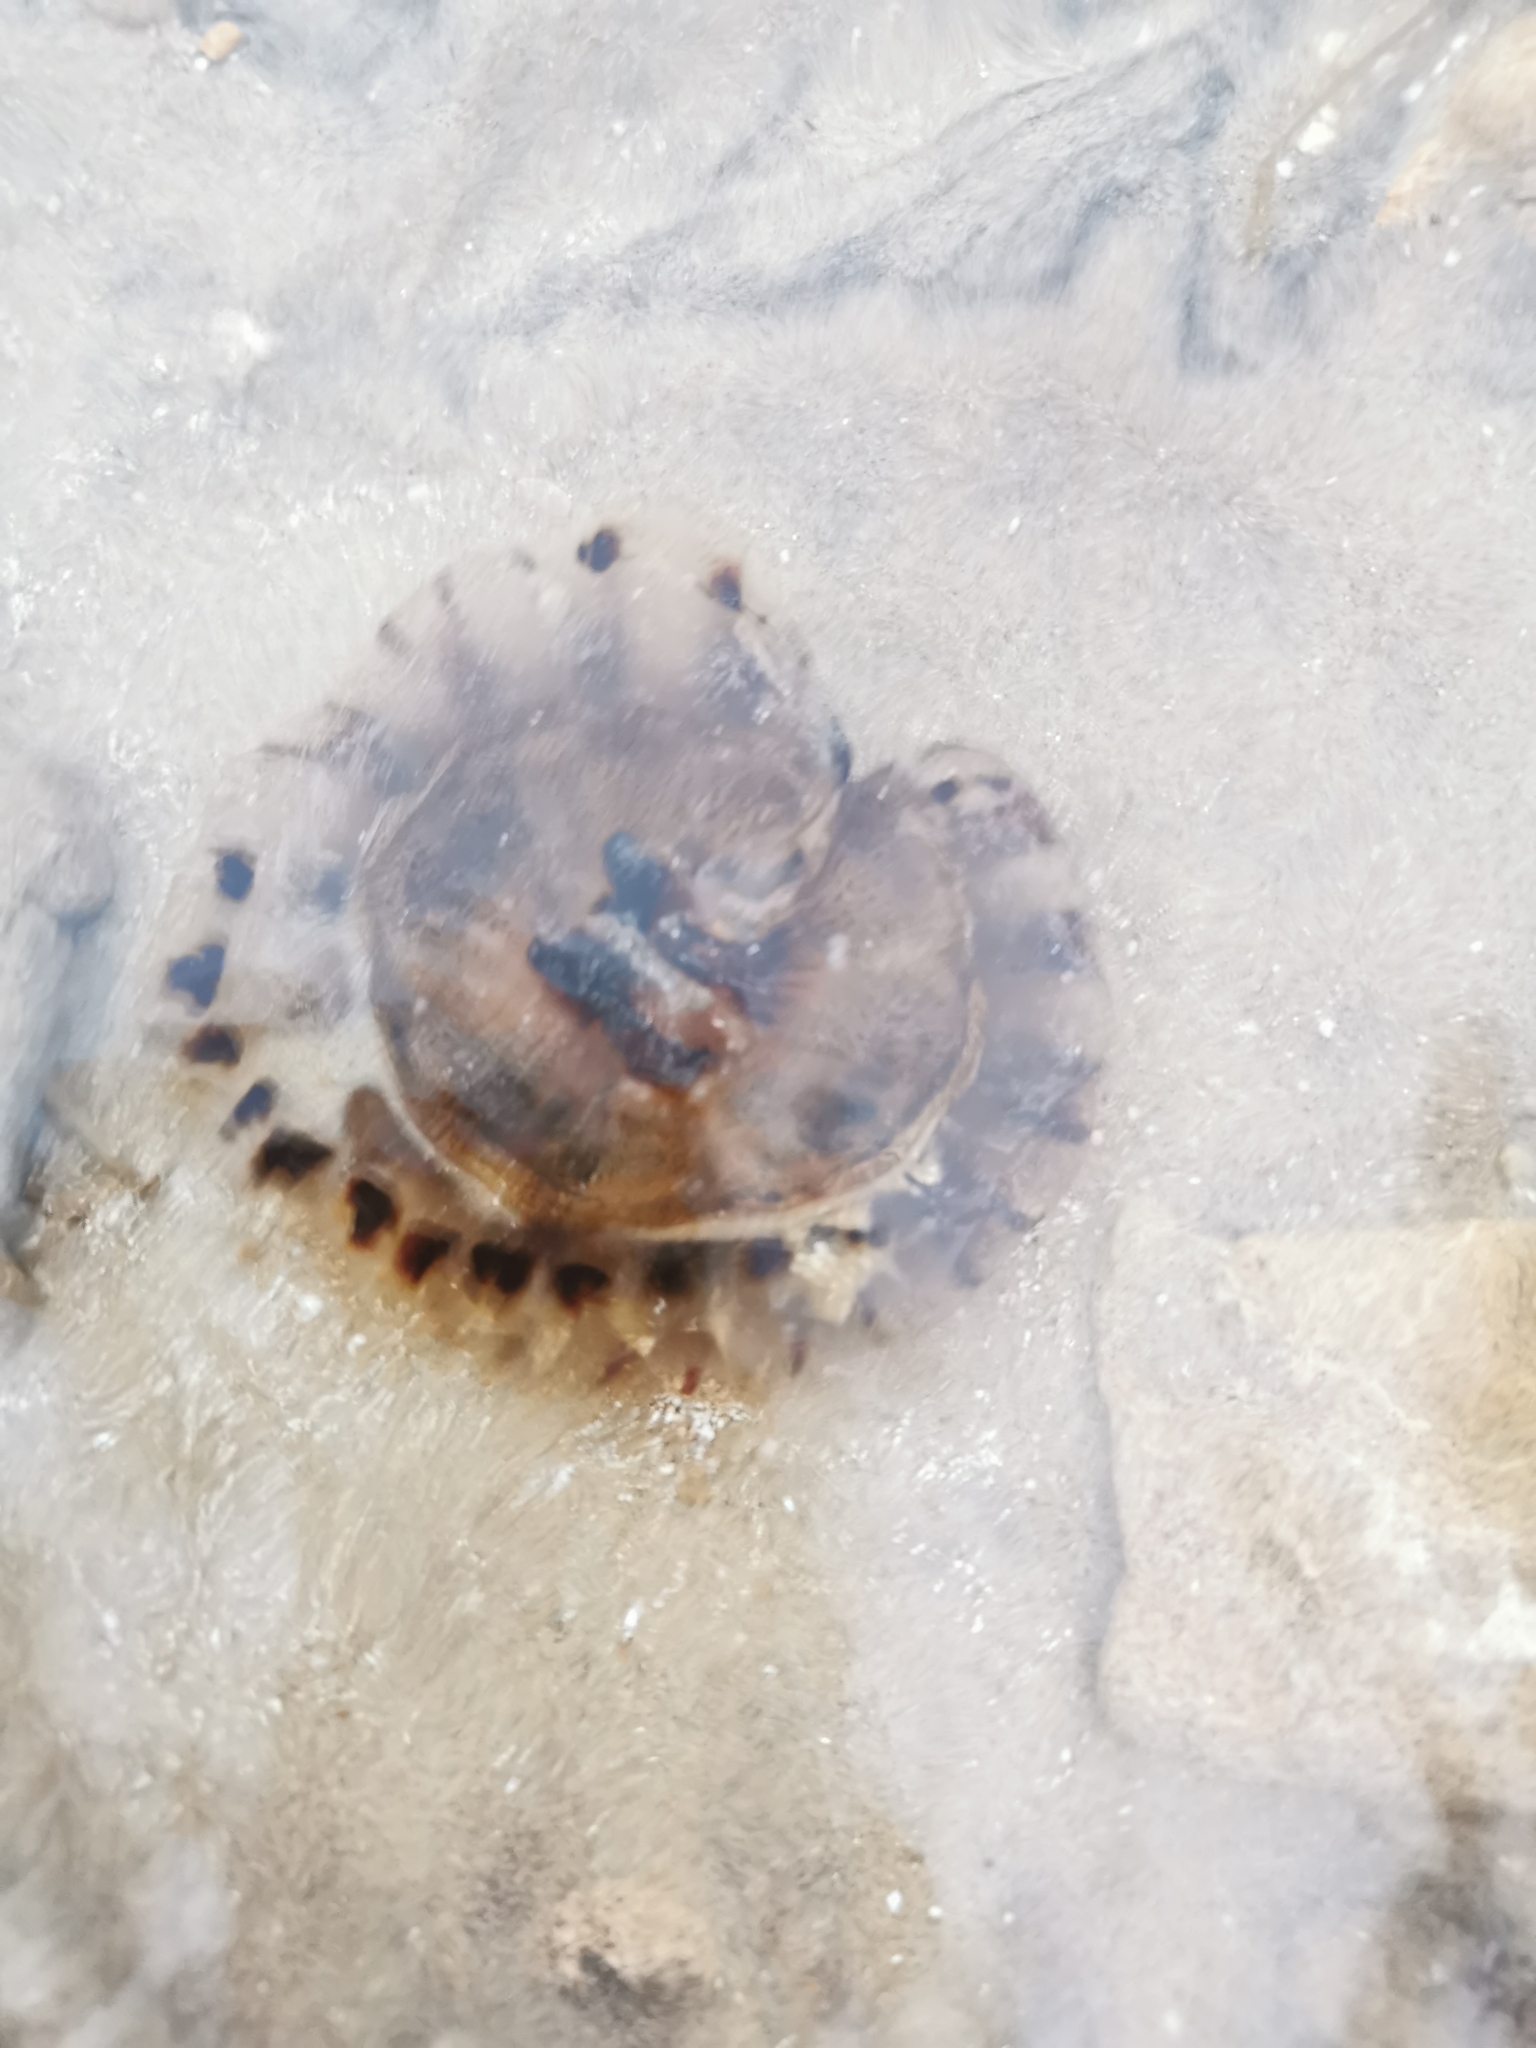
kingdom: Animalia
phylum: Cnidaria
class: Scyphozoa
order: Semaeostomeae
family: Pelagiidae
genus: Chrysaora
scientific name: Chrysaora hysoscella
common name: Compass jellyfish
